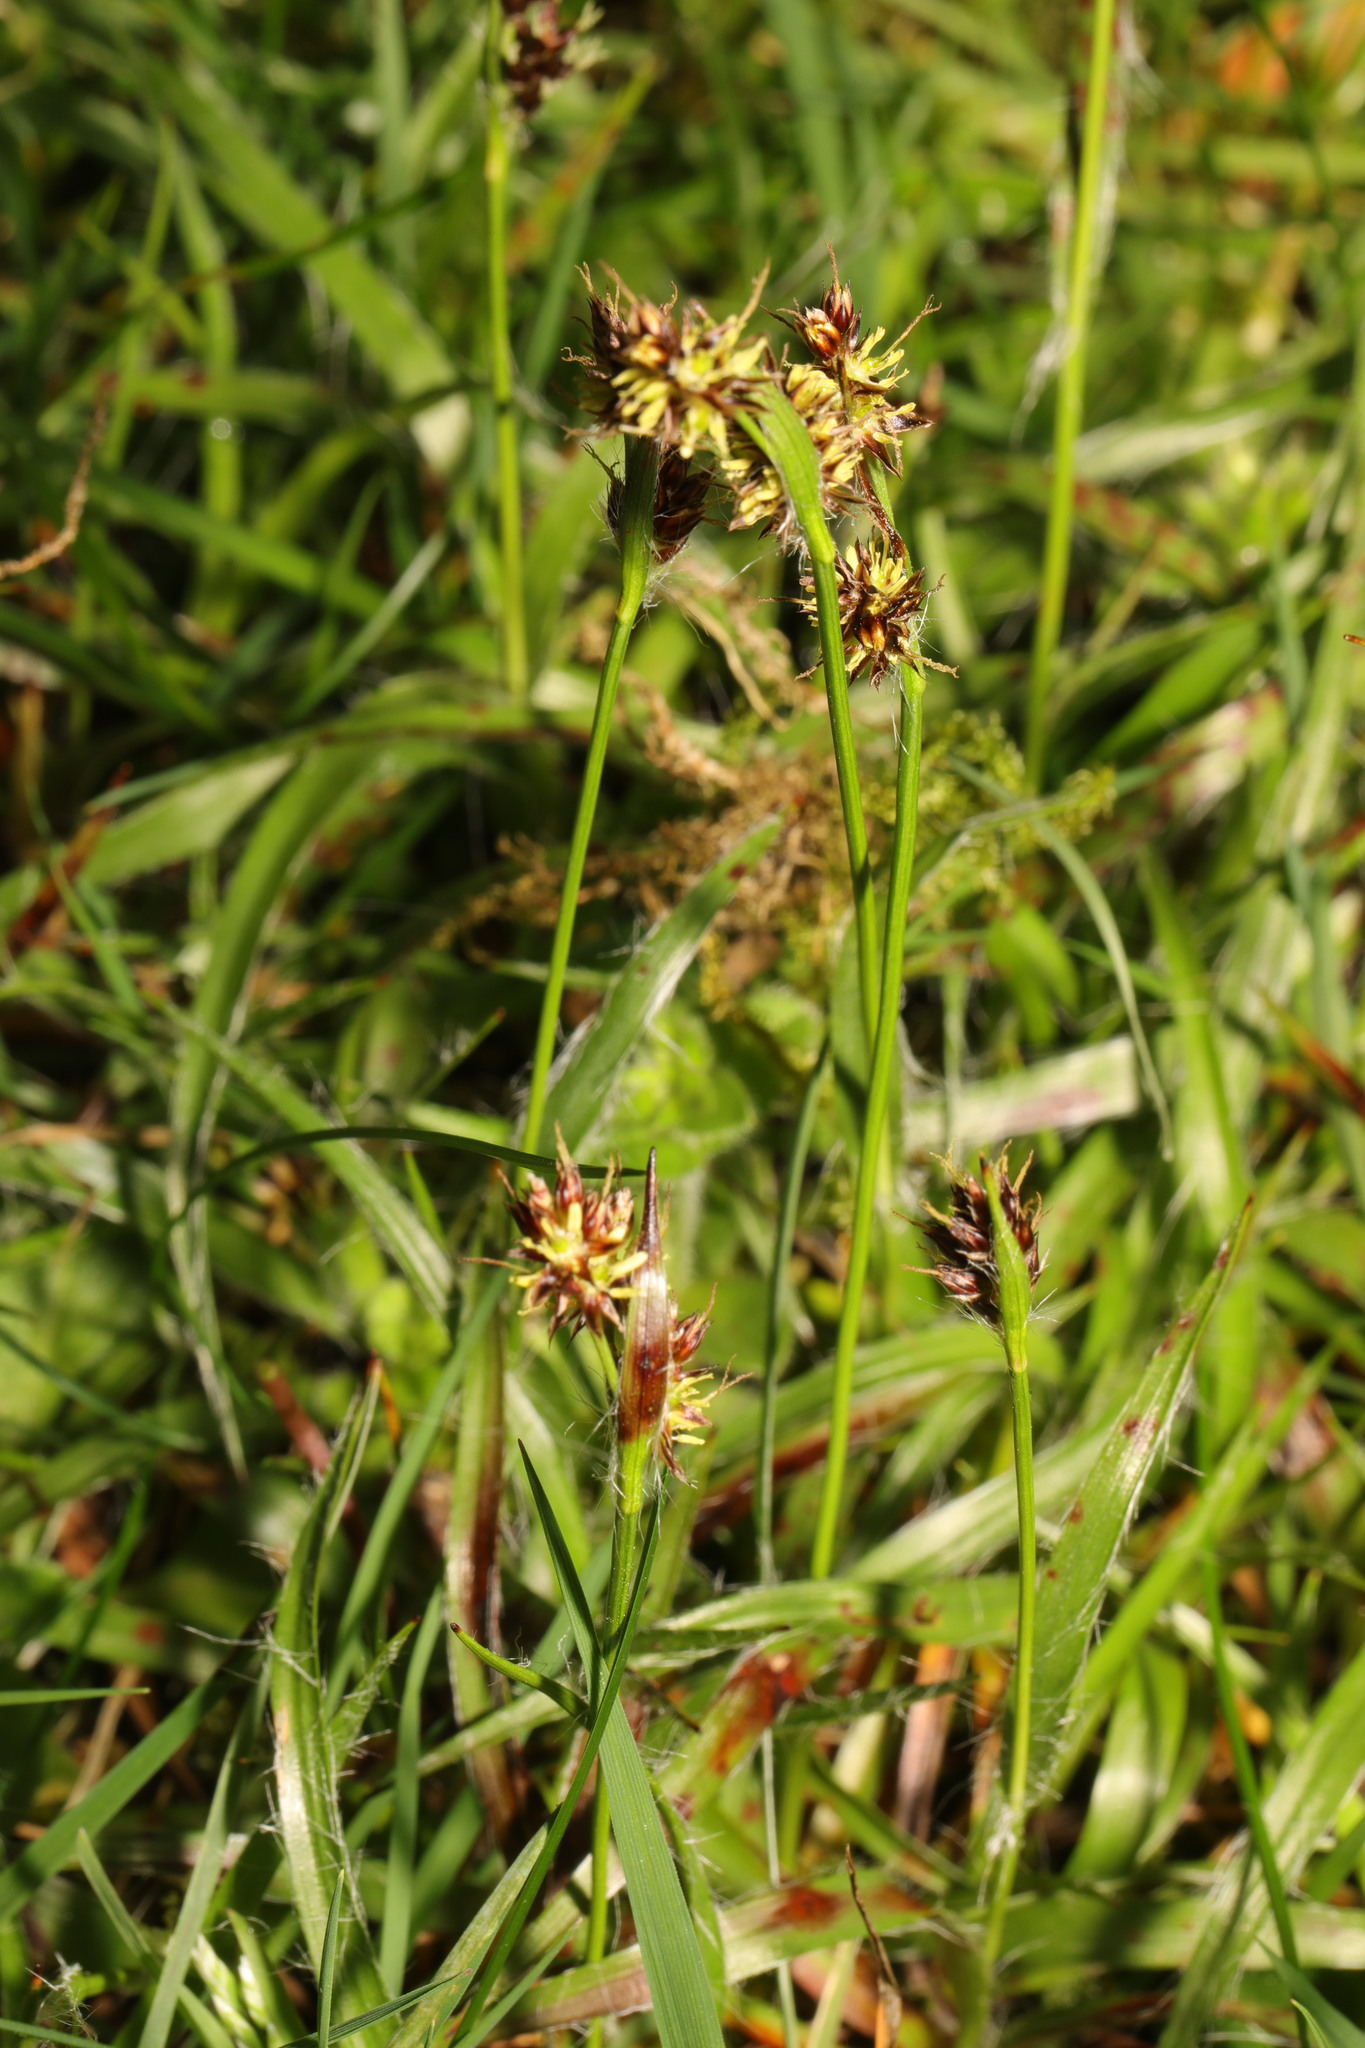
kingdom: Plantae
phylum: Tracheophyta
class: Liliopsida
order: Poales
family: Juncaceae
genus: Luzula
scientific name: Luzula campestris
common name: Field wood-rush
